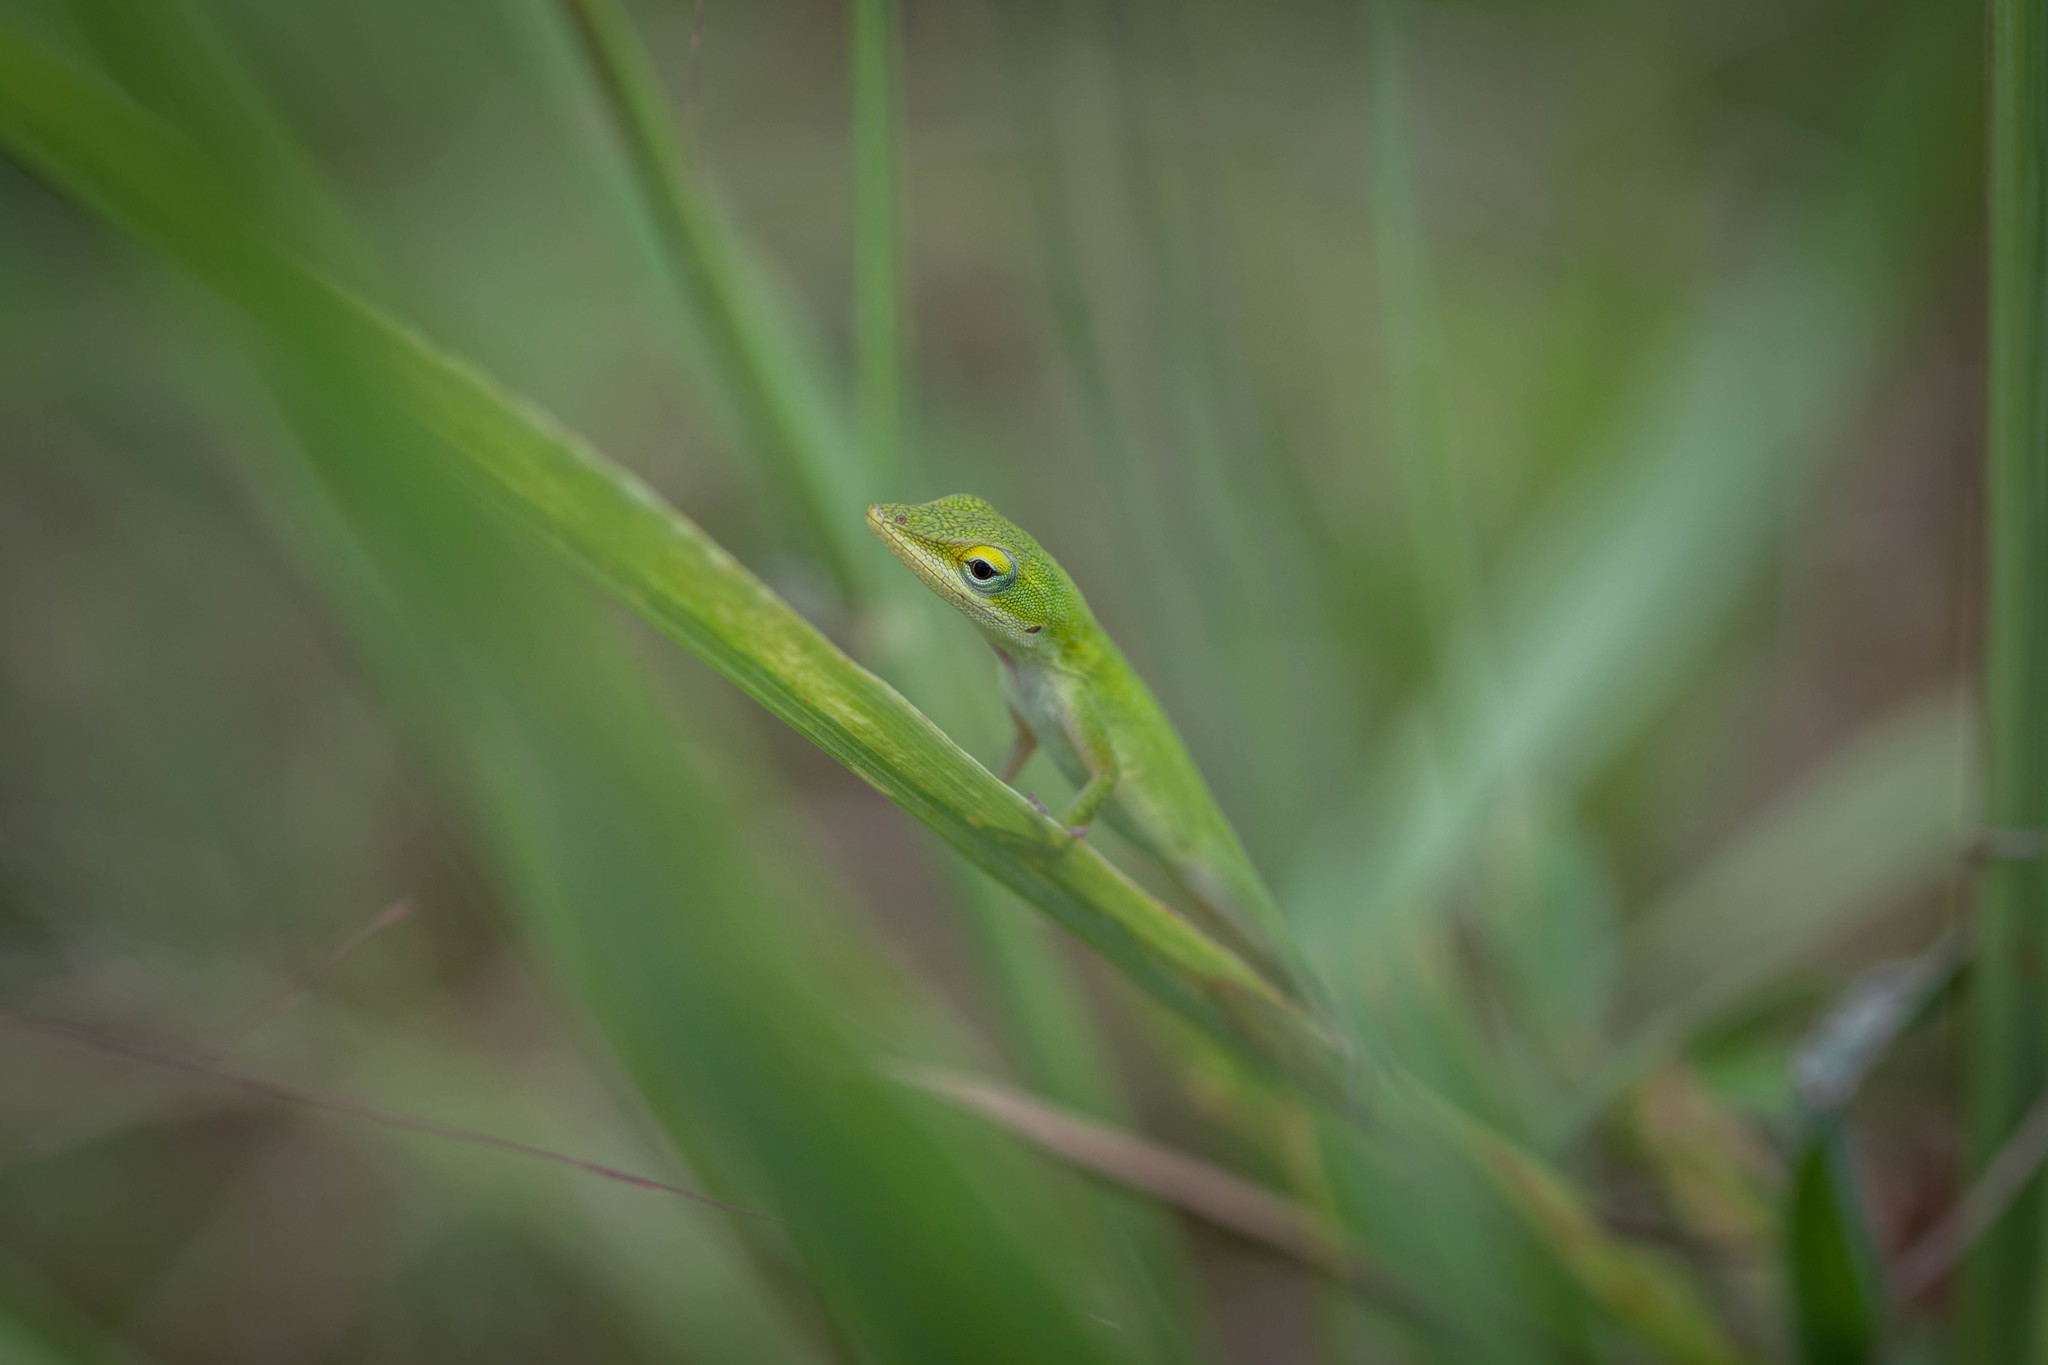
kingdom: Animalia
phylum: Chordata
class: Squamata
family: Dactyloidae
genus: Anolis
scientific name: Anolis carolinensis
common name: Green anole
